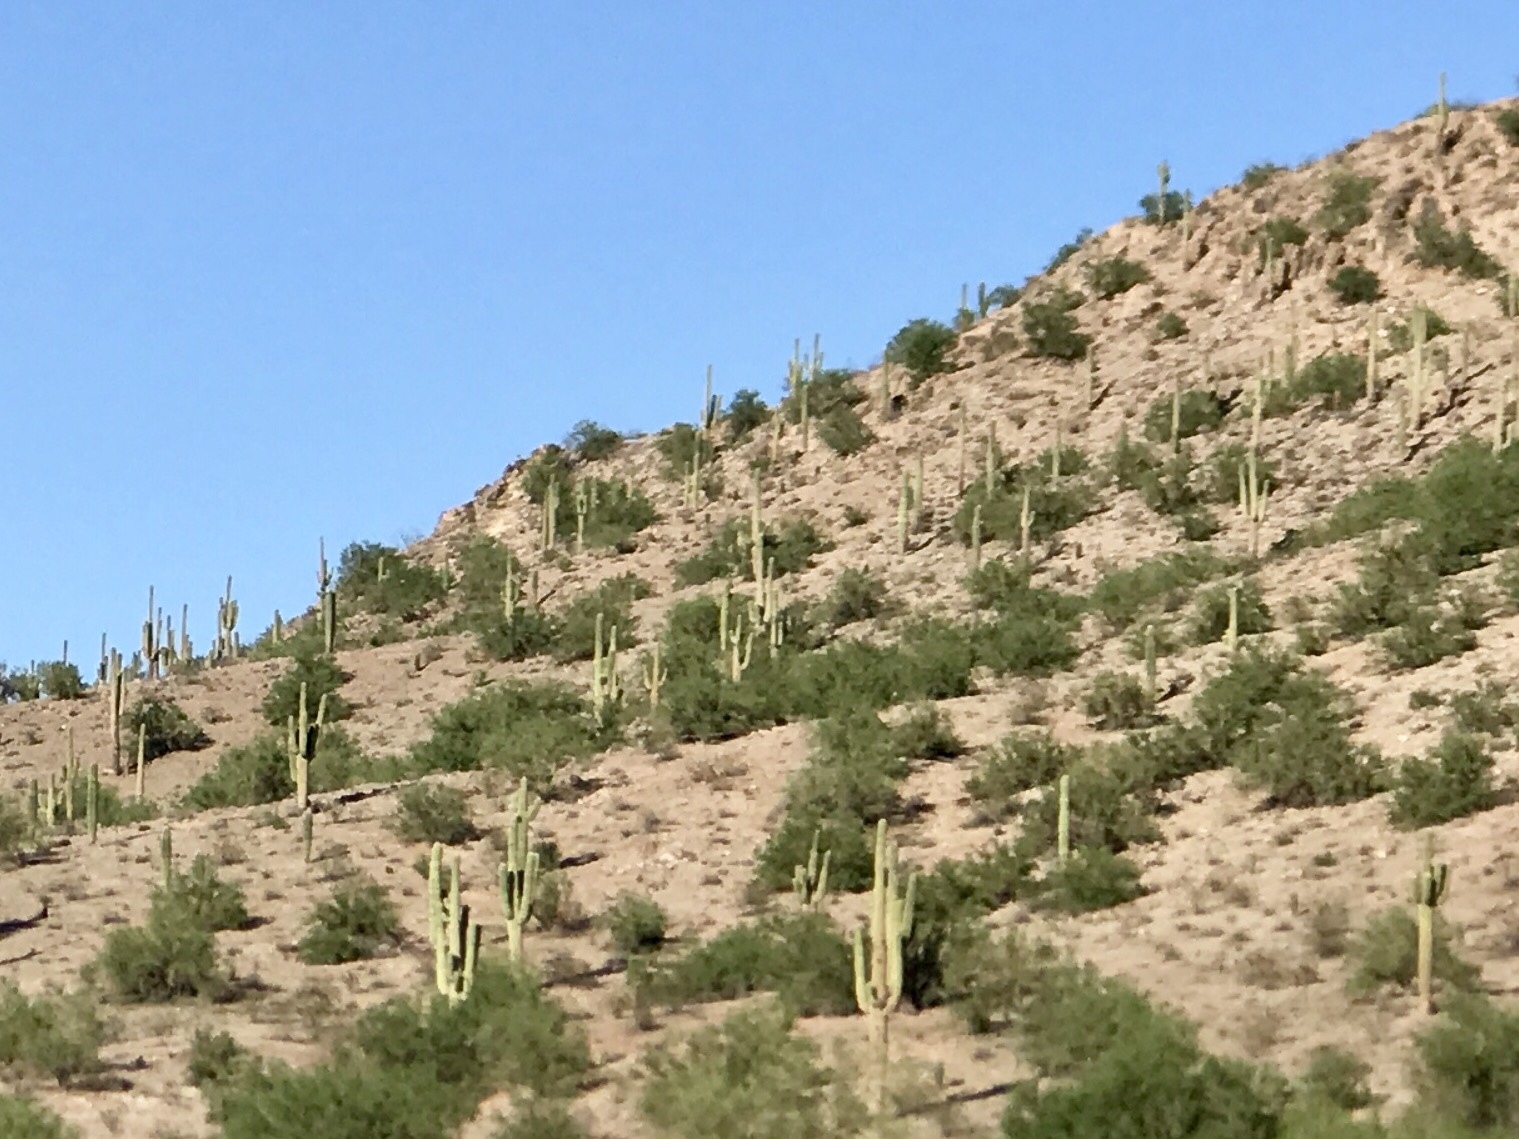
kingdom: Plantae
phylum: Tracheophyta
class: Magnoliopsida
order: Caryophyllales
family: Cactaceae
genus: Carnegiea
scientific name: Carnegiea gigantea
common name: Saguaro
